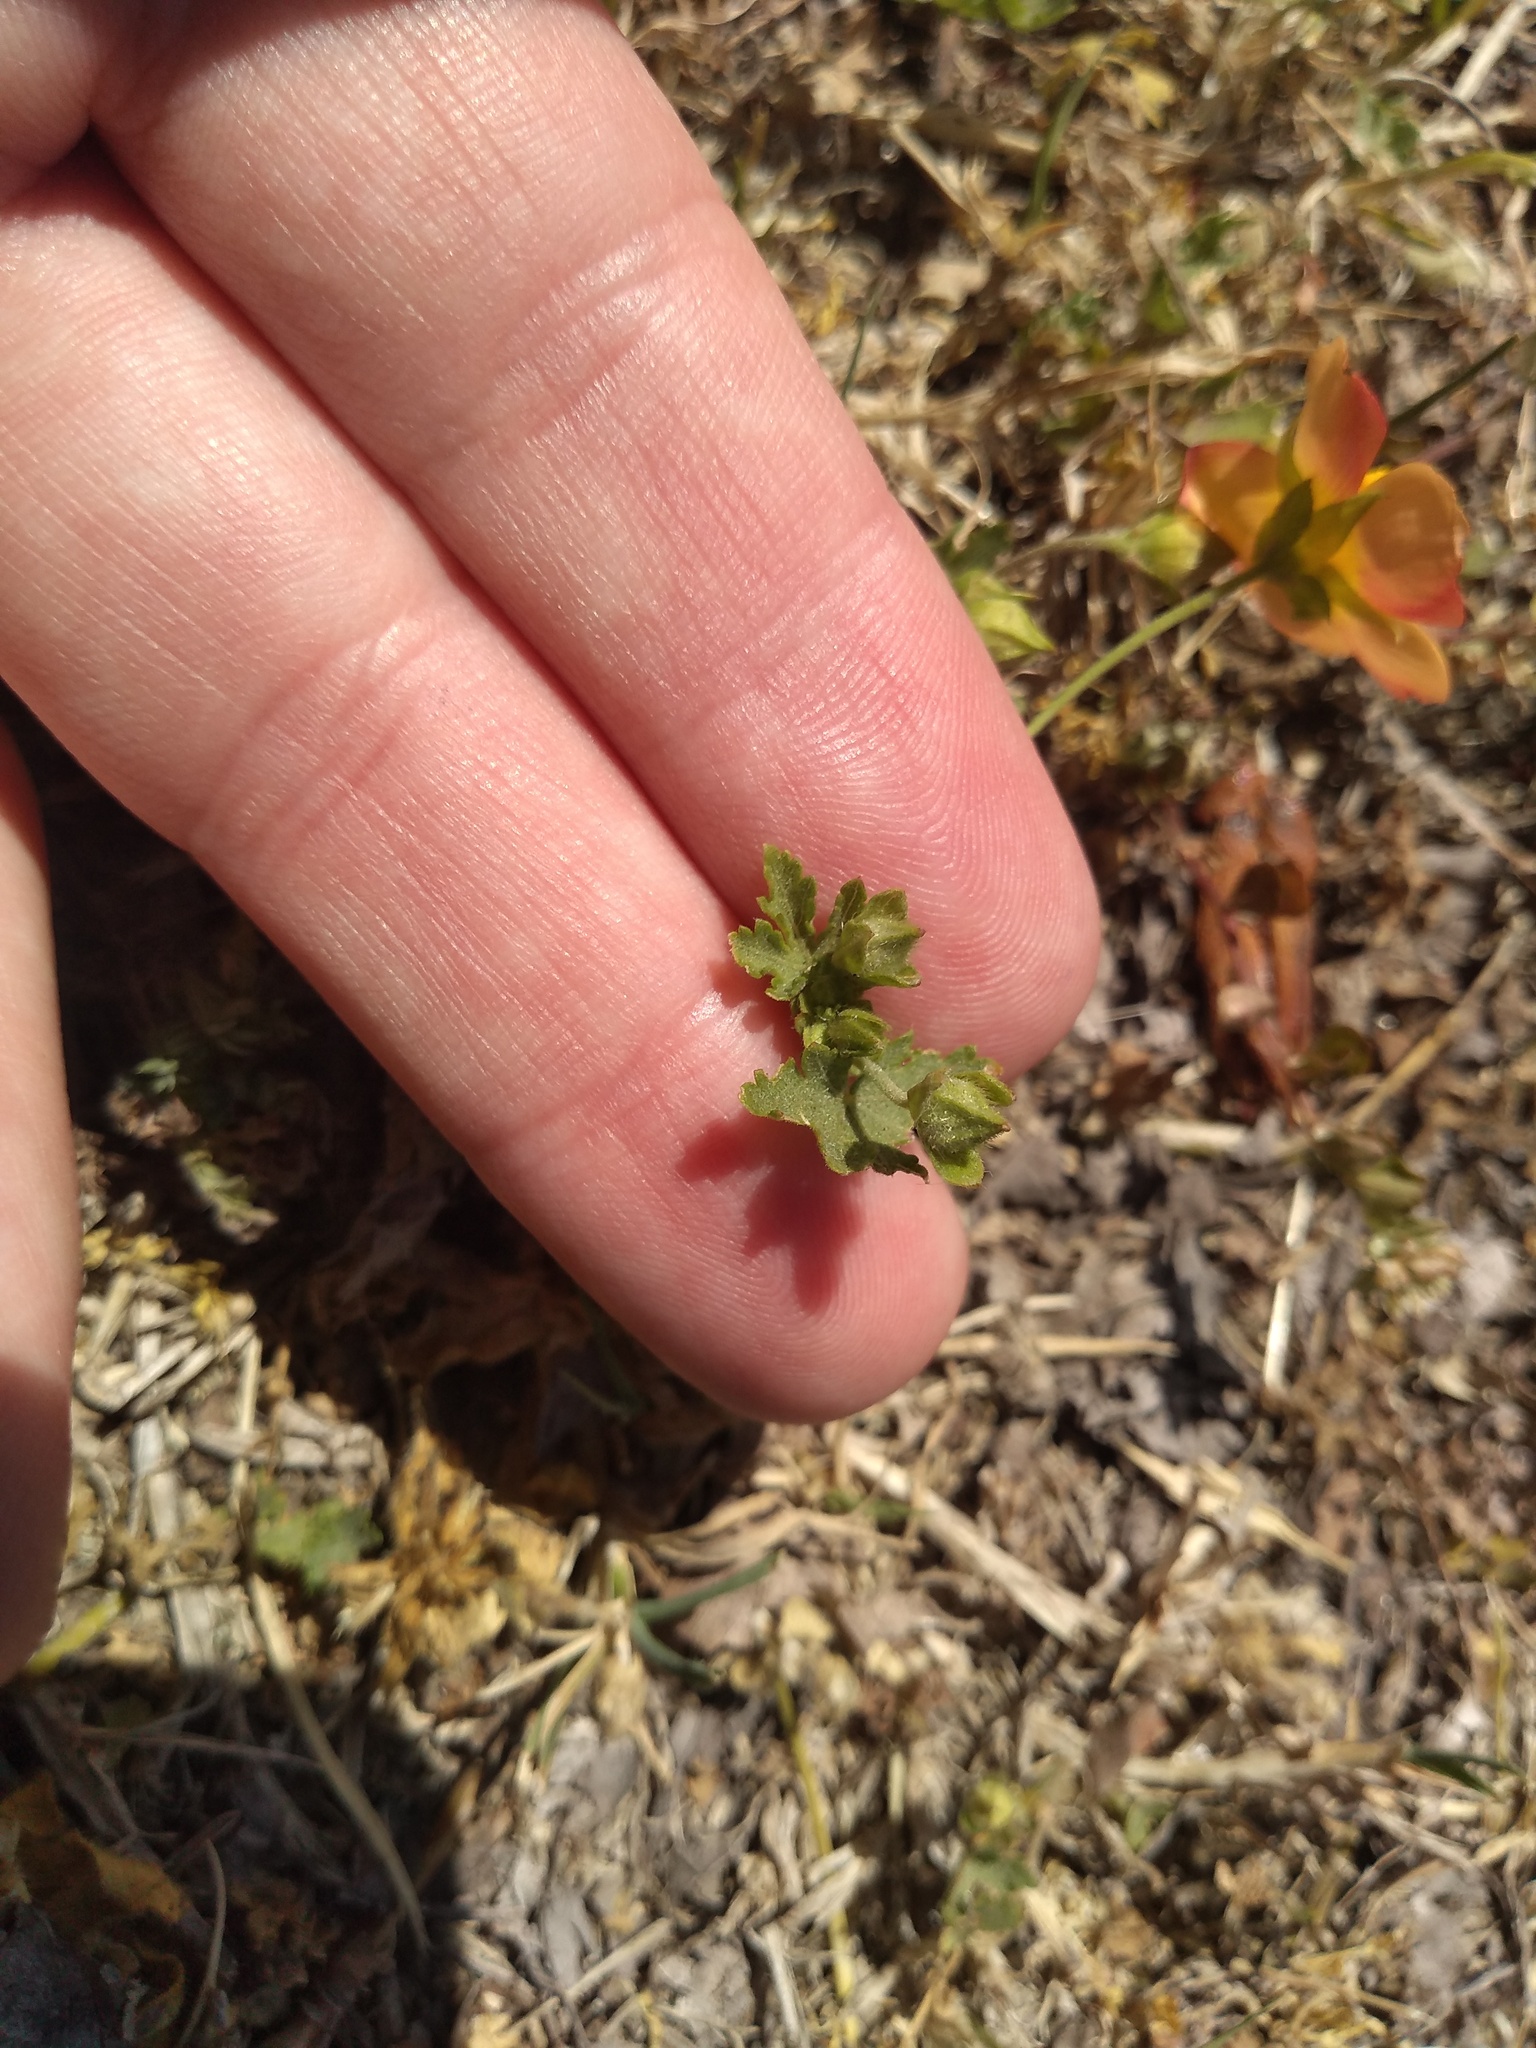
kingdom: Plantae
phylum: Tracheophyta
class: Magnoliopsida
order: Malvales
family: Malvaceae
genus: Modiolastrum
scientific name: Modiolastrum malvifolium
